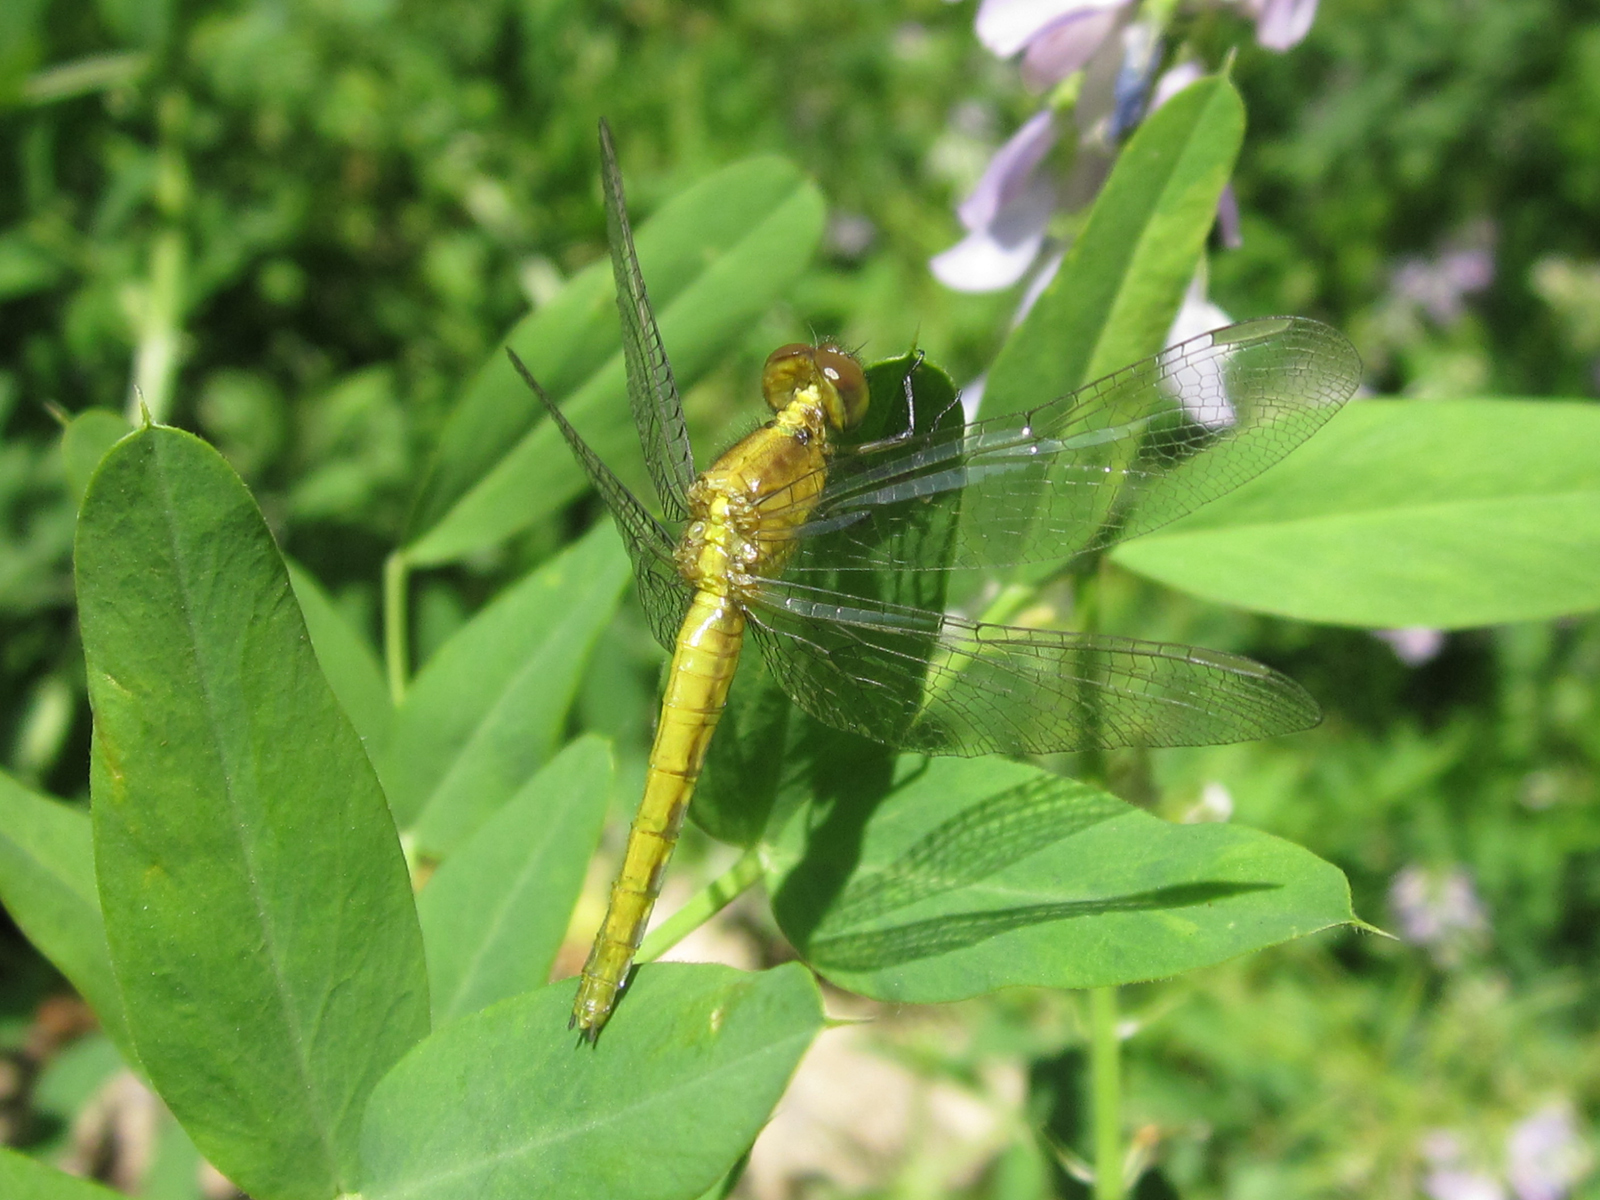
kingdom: Animalia
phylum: Arthropoda
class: Insecta
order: Odonata
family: Libellulidae
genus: Erythrodiplax
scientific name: Erythrodiplax connata
